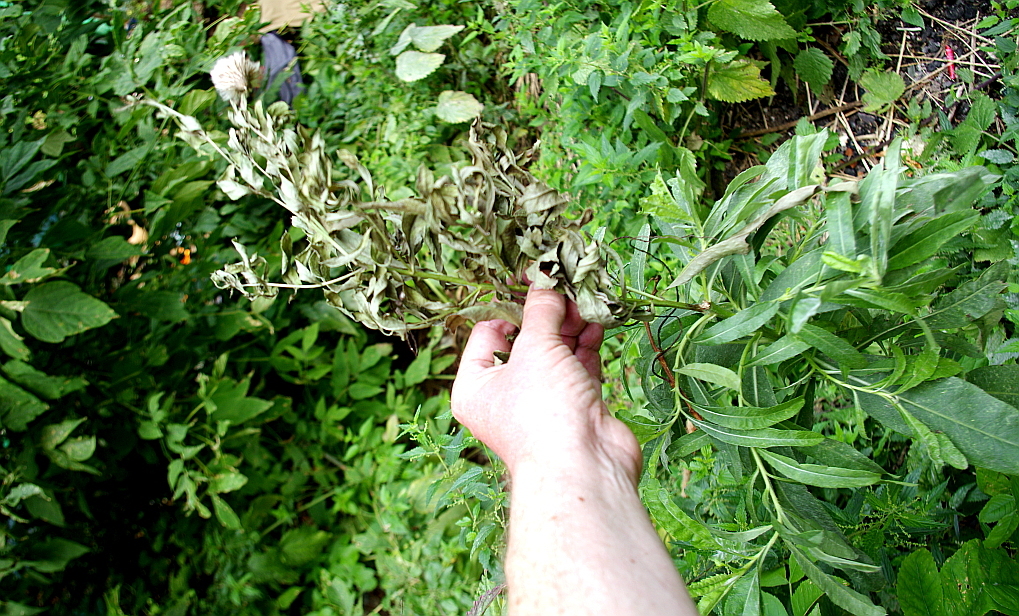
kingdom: Plantae
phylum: Tracheophyta
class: Magnoliopsida
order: Asterales
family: Asteraceae
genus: Cirsium
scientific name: Cirsium arvense
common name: Creeping thistle
